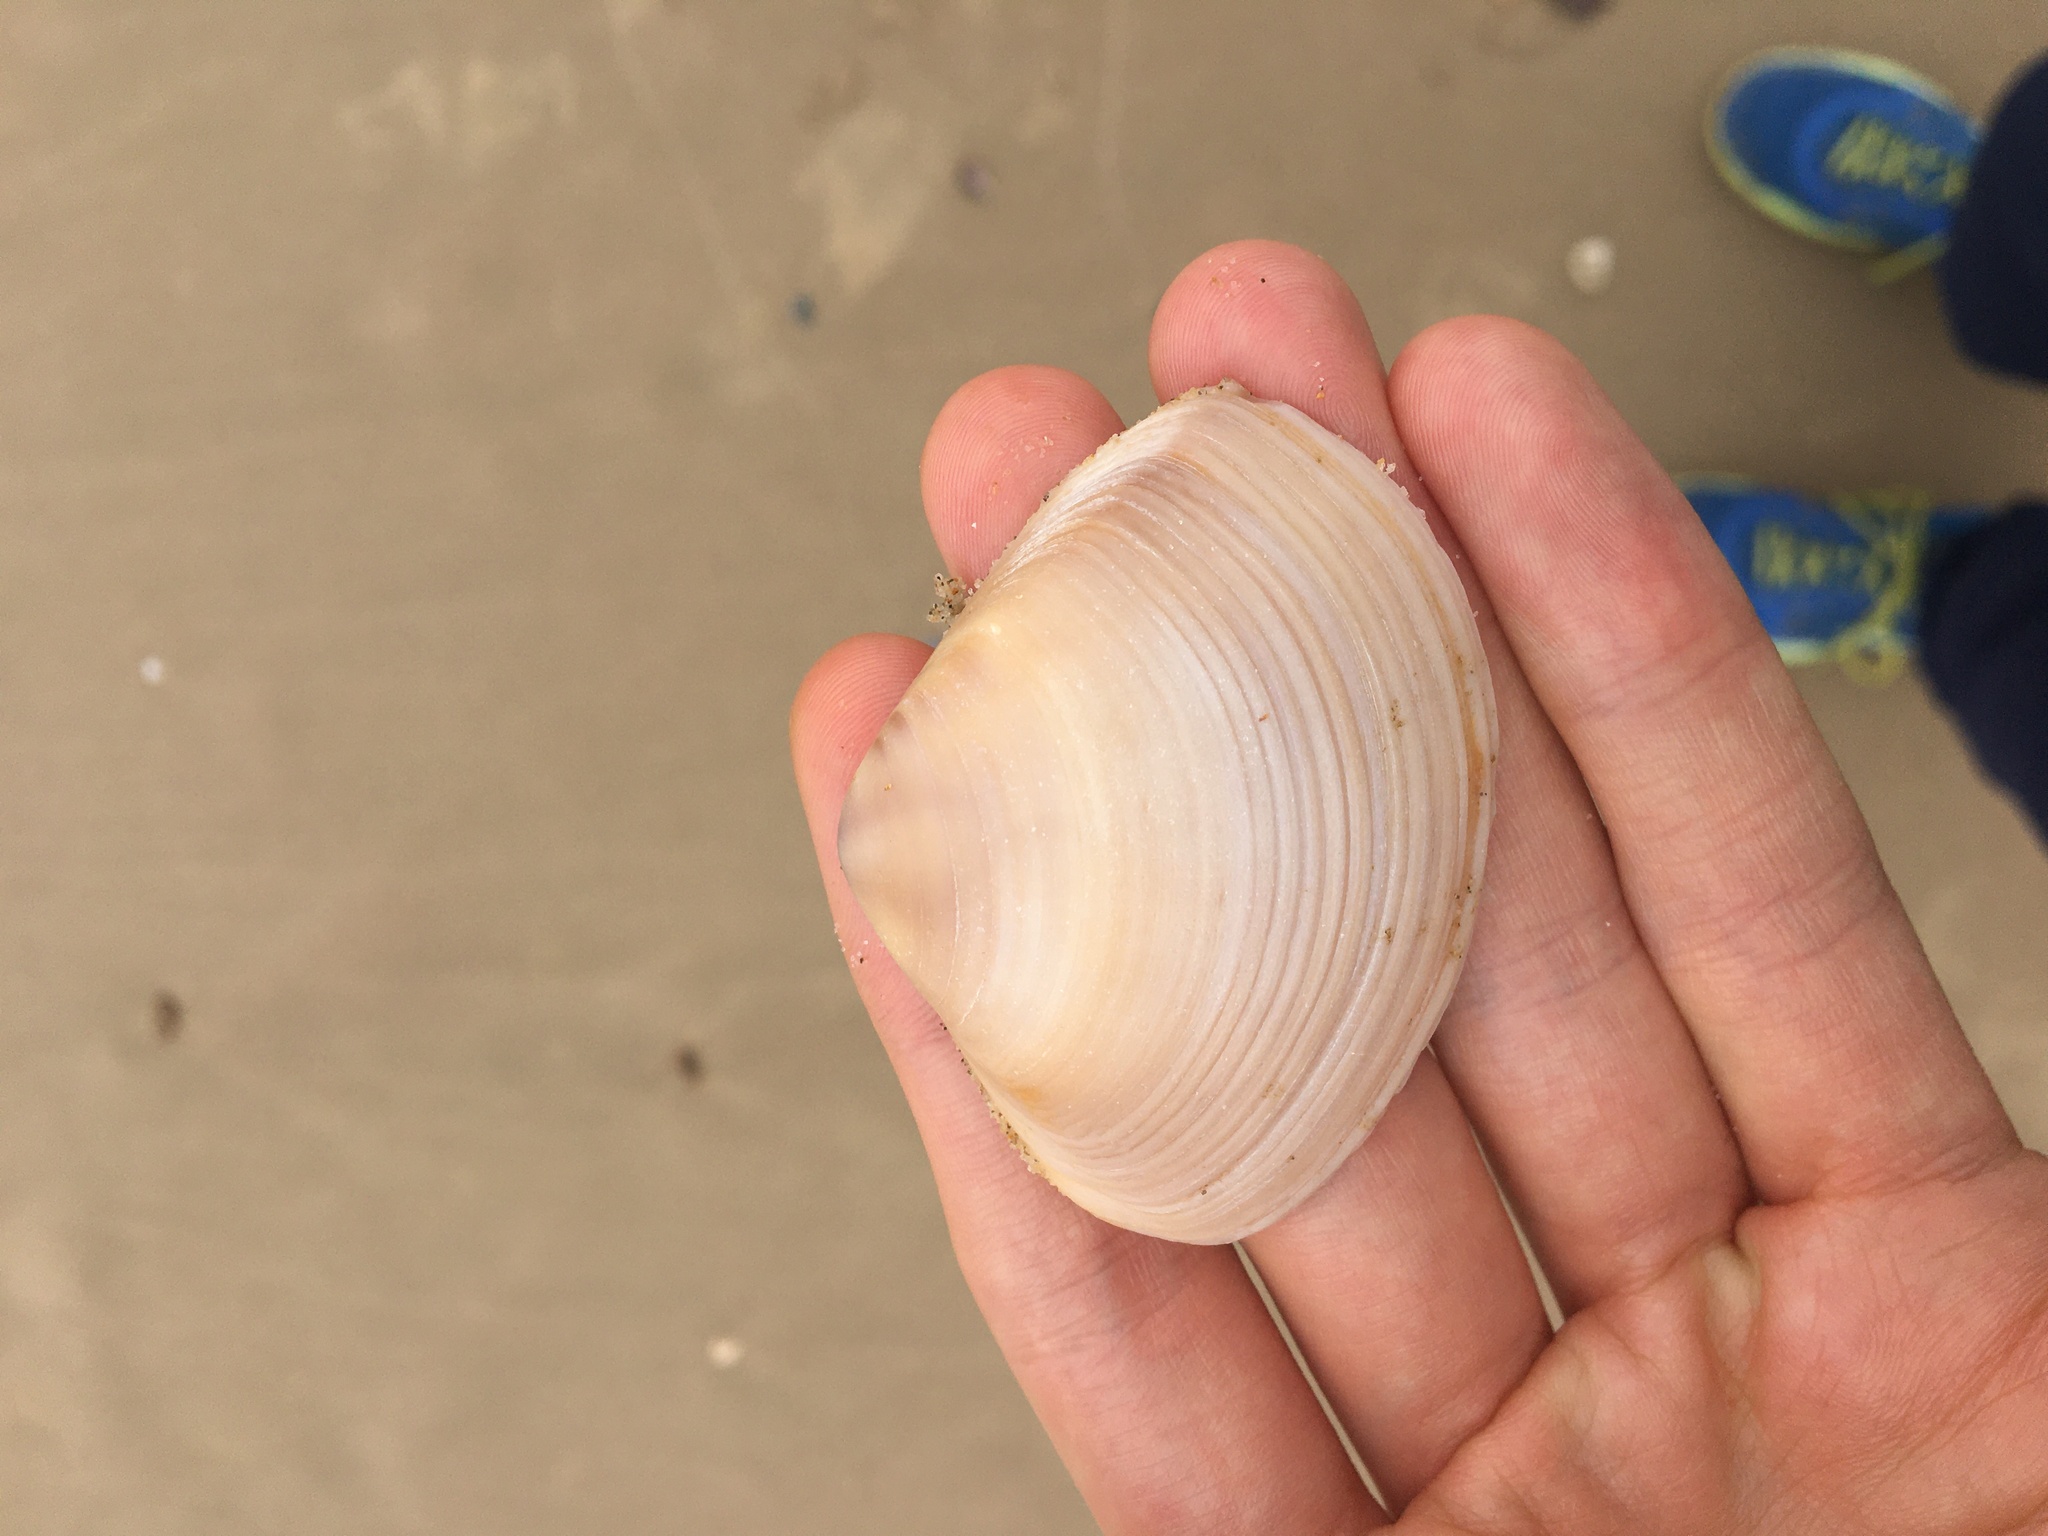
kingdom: Animalia
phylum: Mollusca
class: Bivalvia
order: Venerida
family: Mactridae
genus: Austromactra
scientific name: Austromactra rufescens
